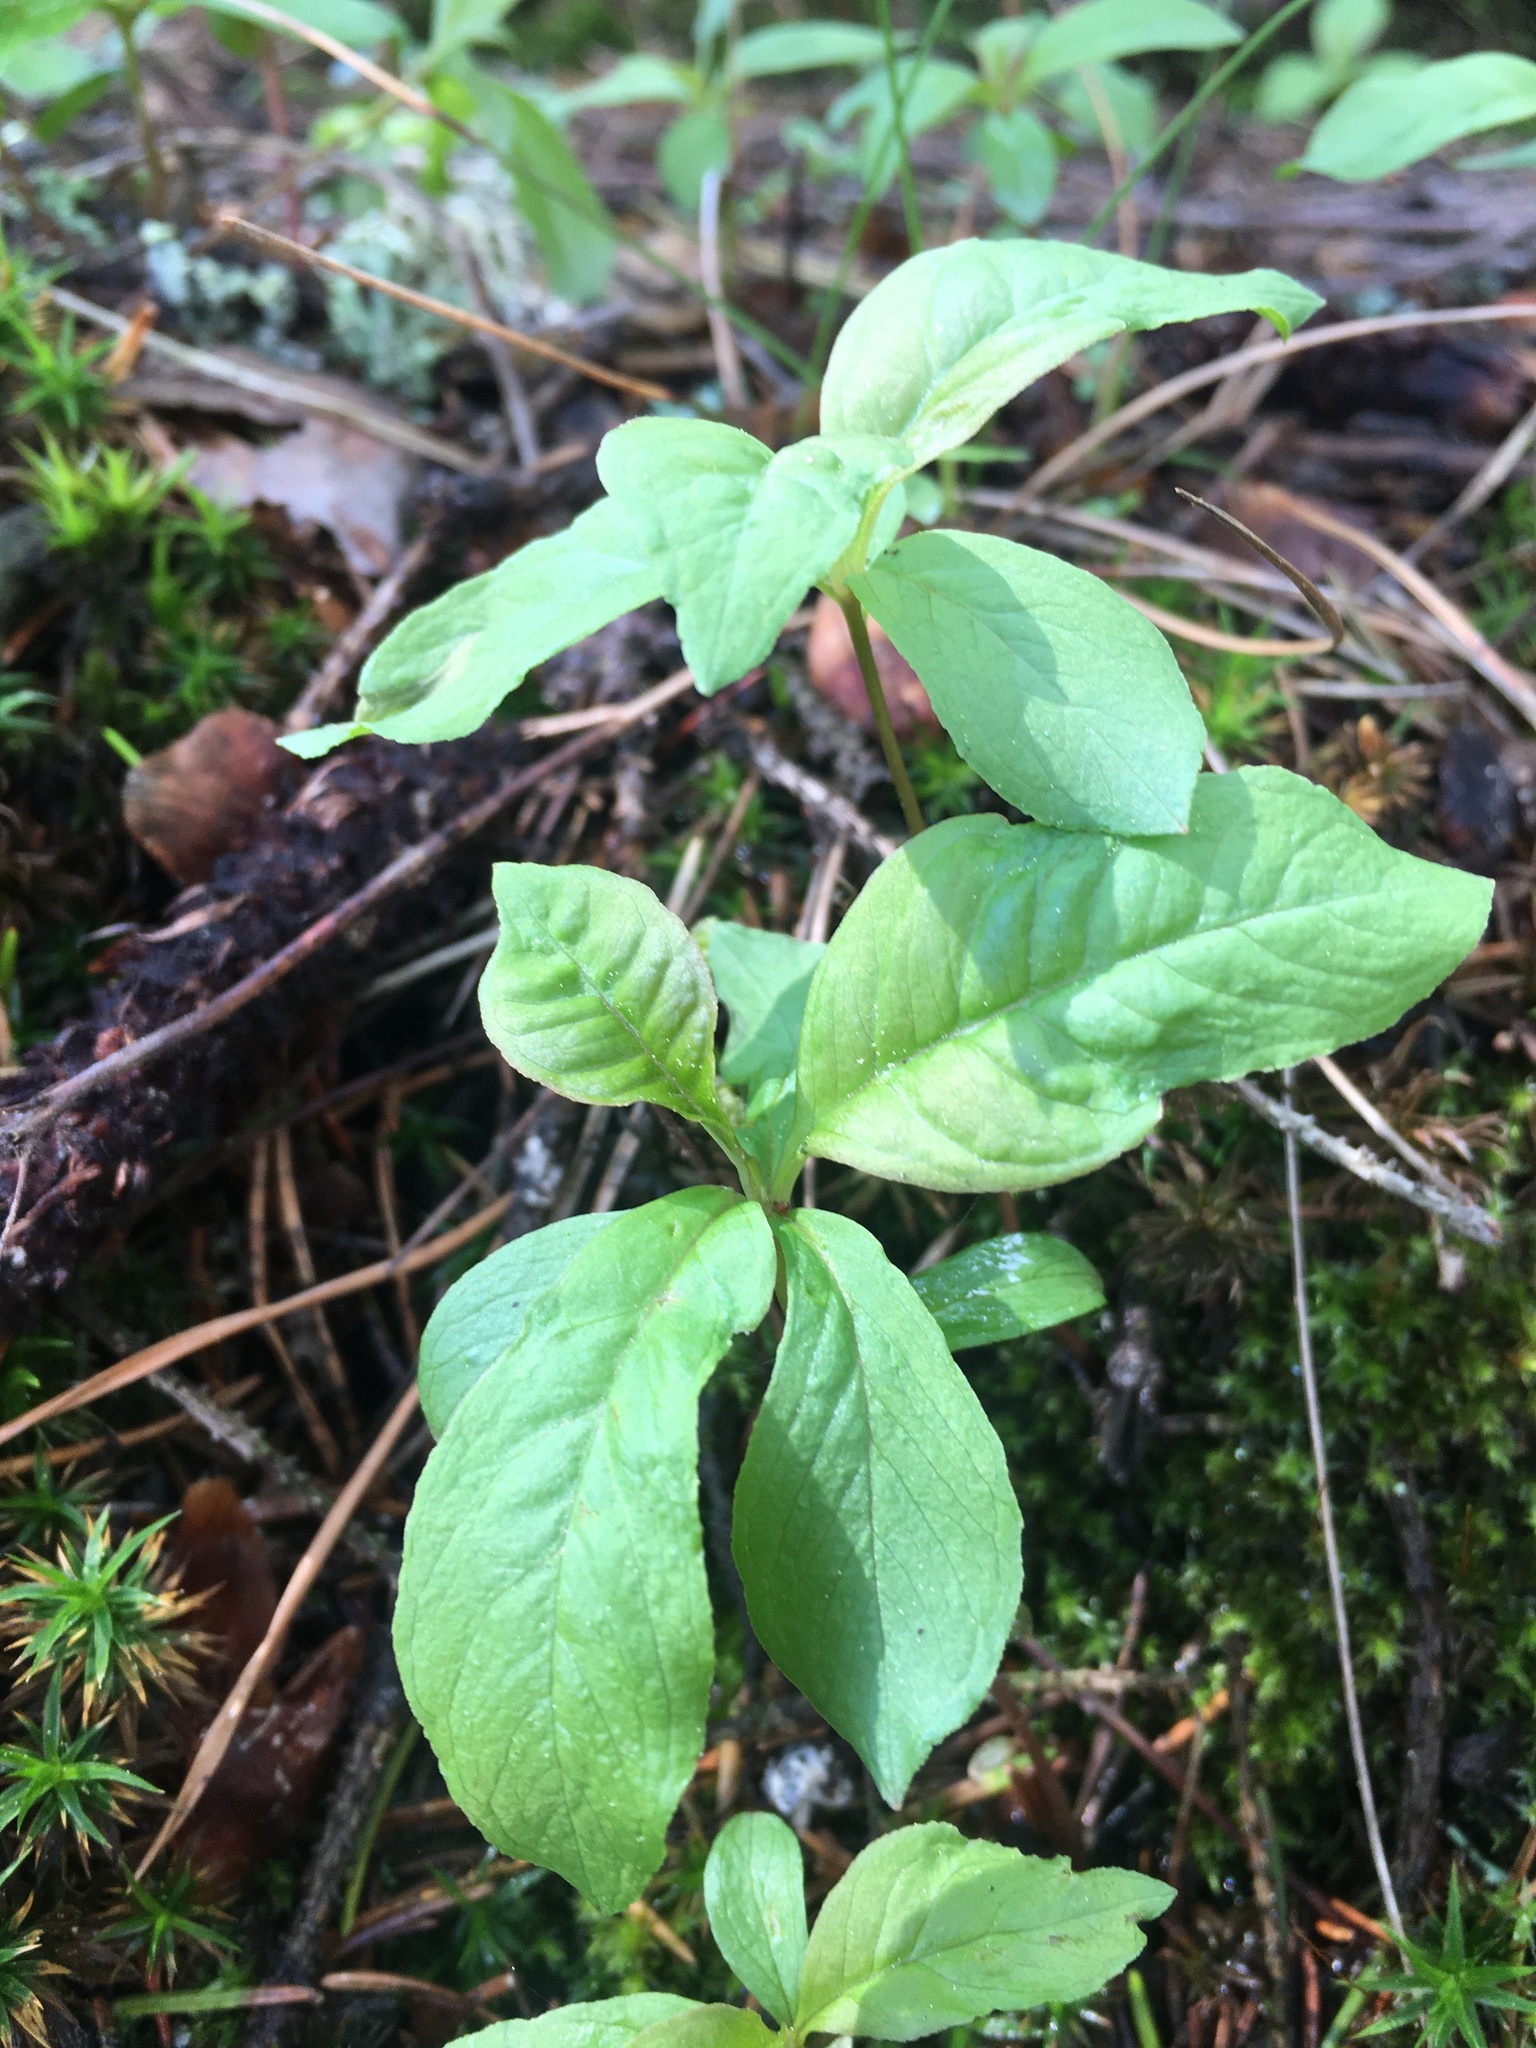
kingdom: Plantae
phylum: Tracheophyta
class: Magnoliopsida
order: Ericales
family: Primulaceae
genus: Lysimachia
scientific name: Lysimachia europaea
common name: Arctic starflower
